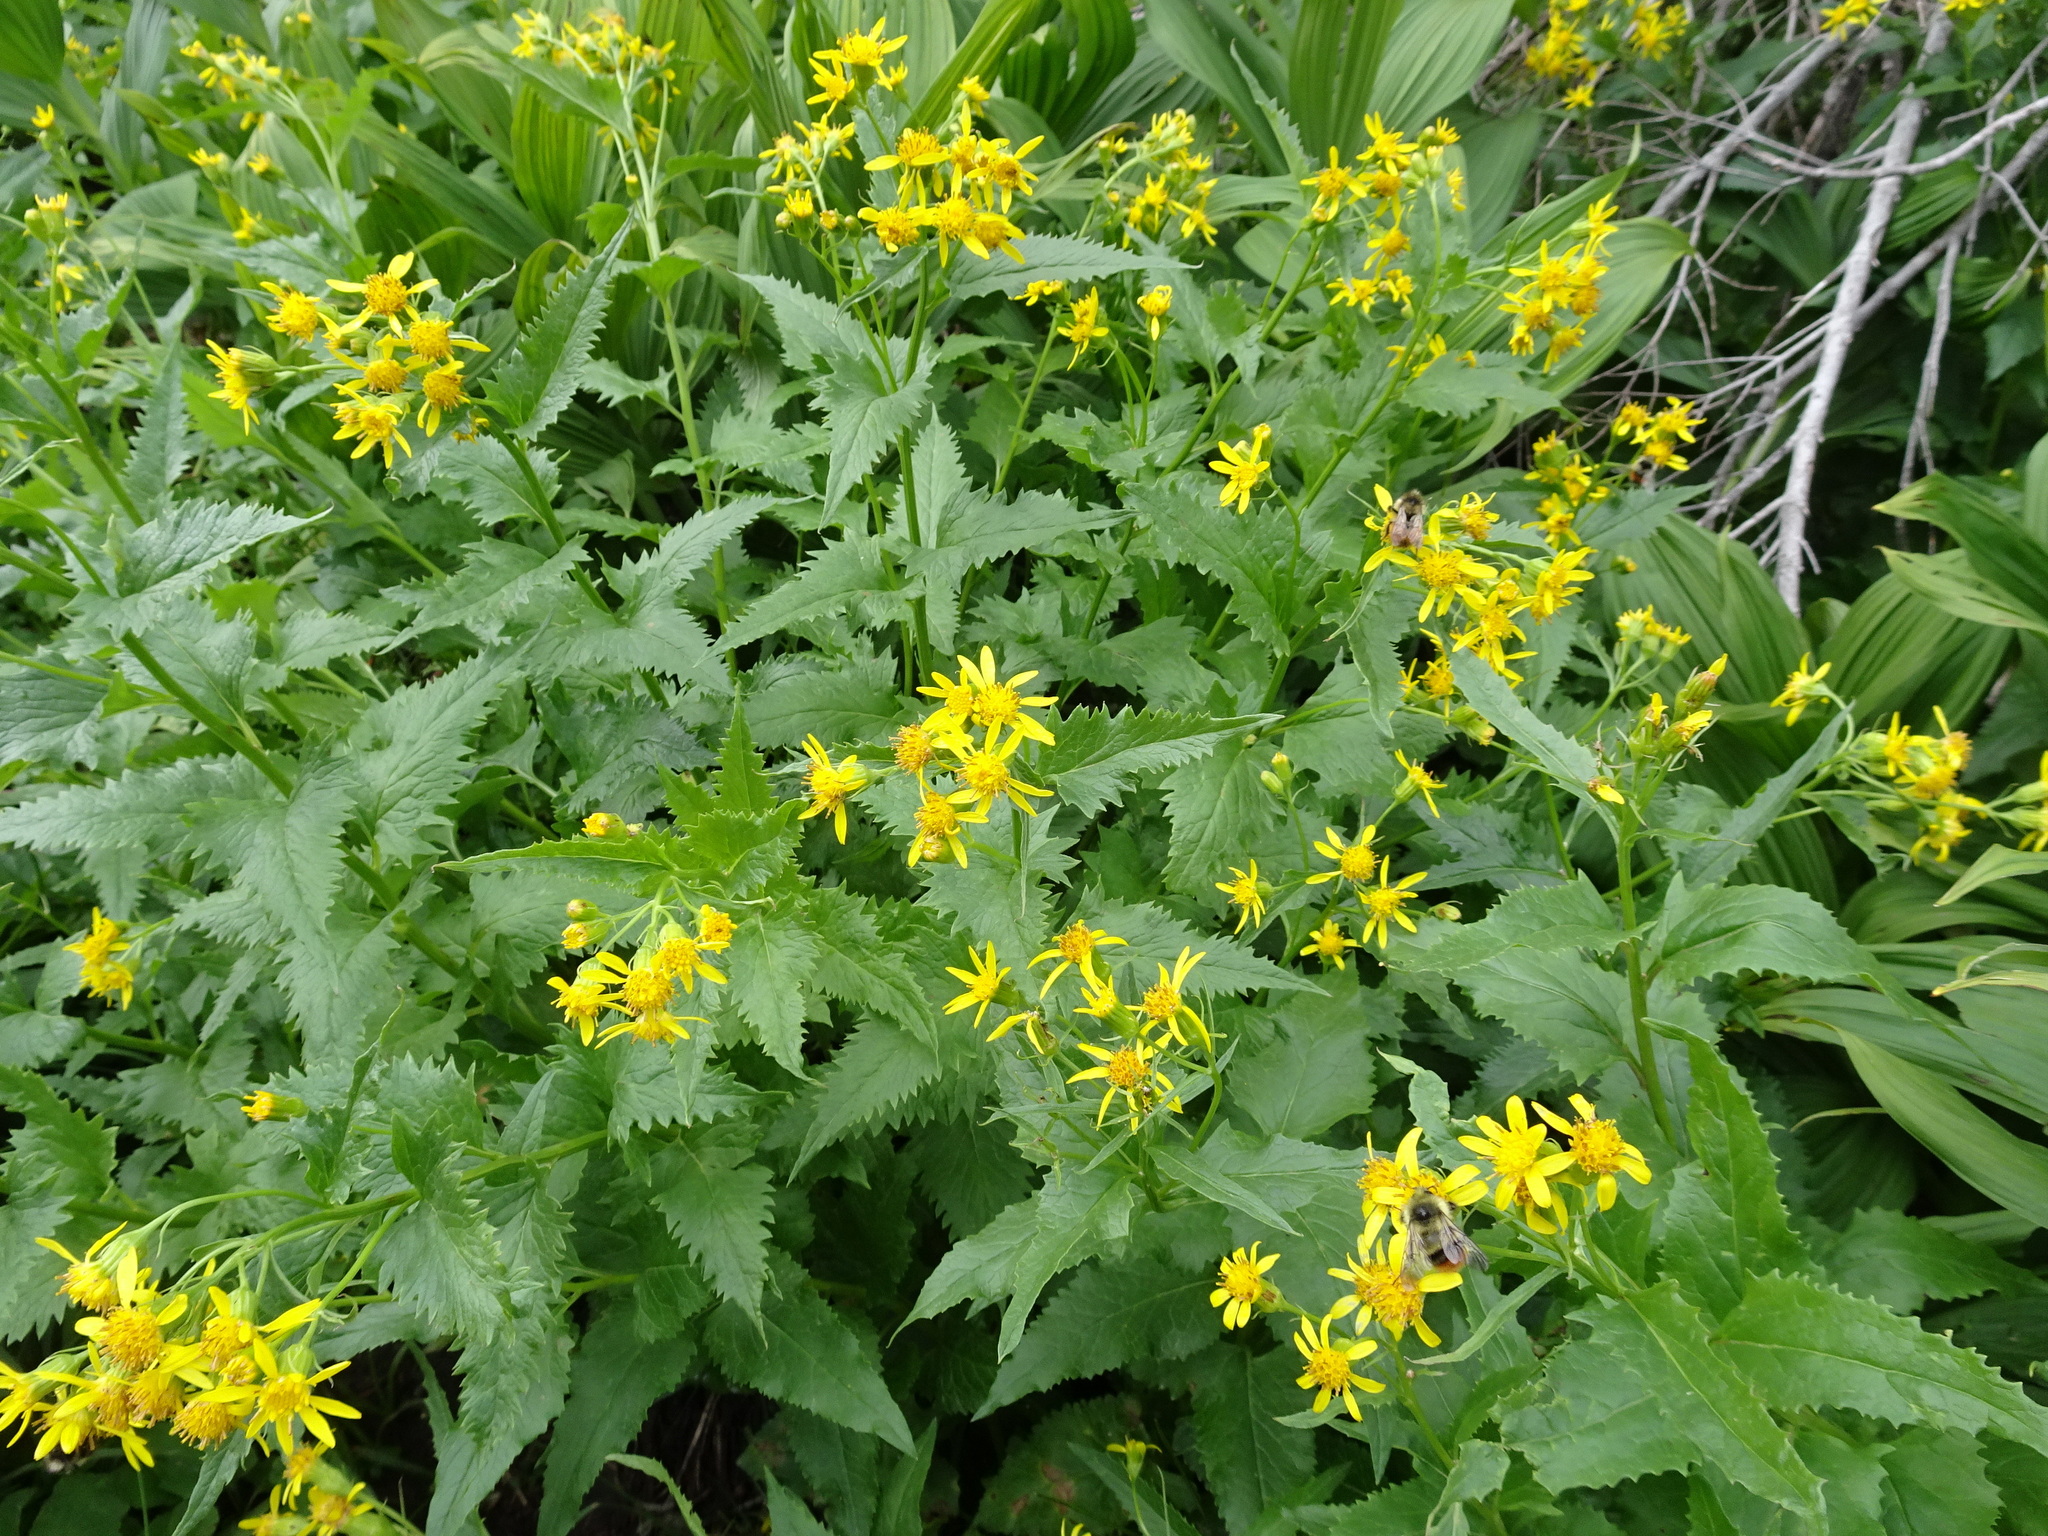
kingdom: Plantae
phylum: Tracheophyta
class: Magnoliopsida
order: Asterales
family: Asteraceae
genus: Senecio
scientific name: Senecio triangularis
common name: Arrowleaf butterweed
